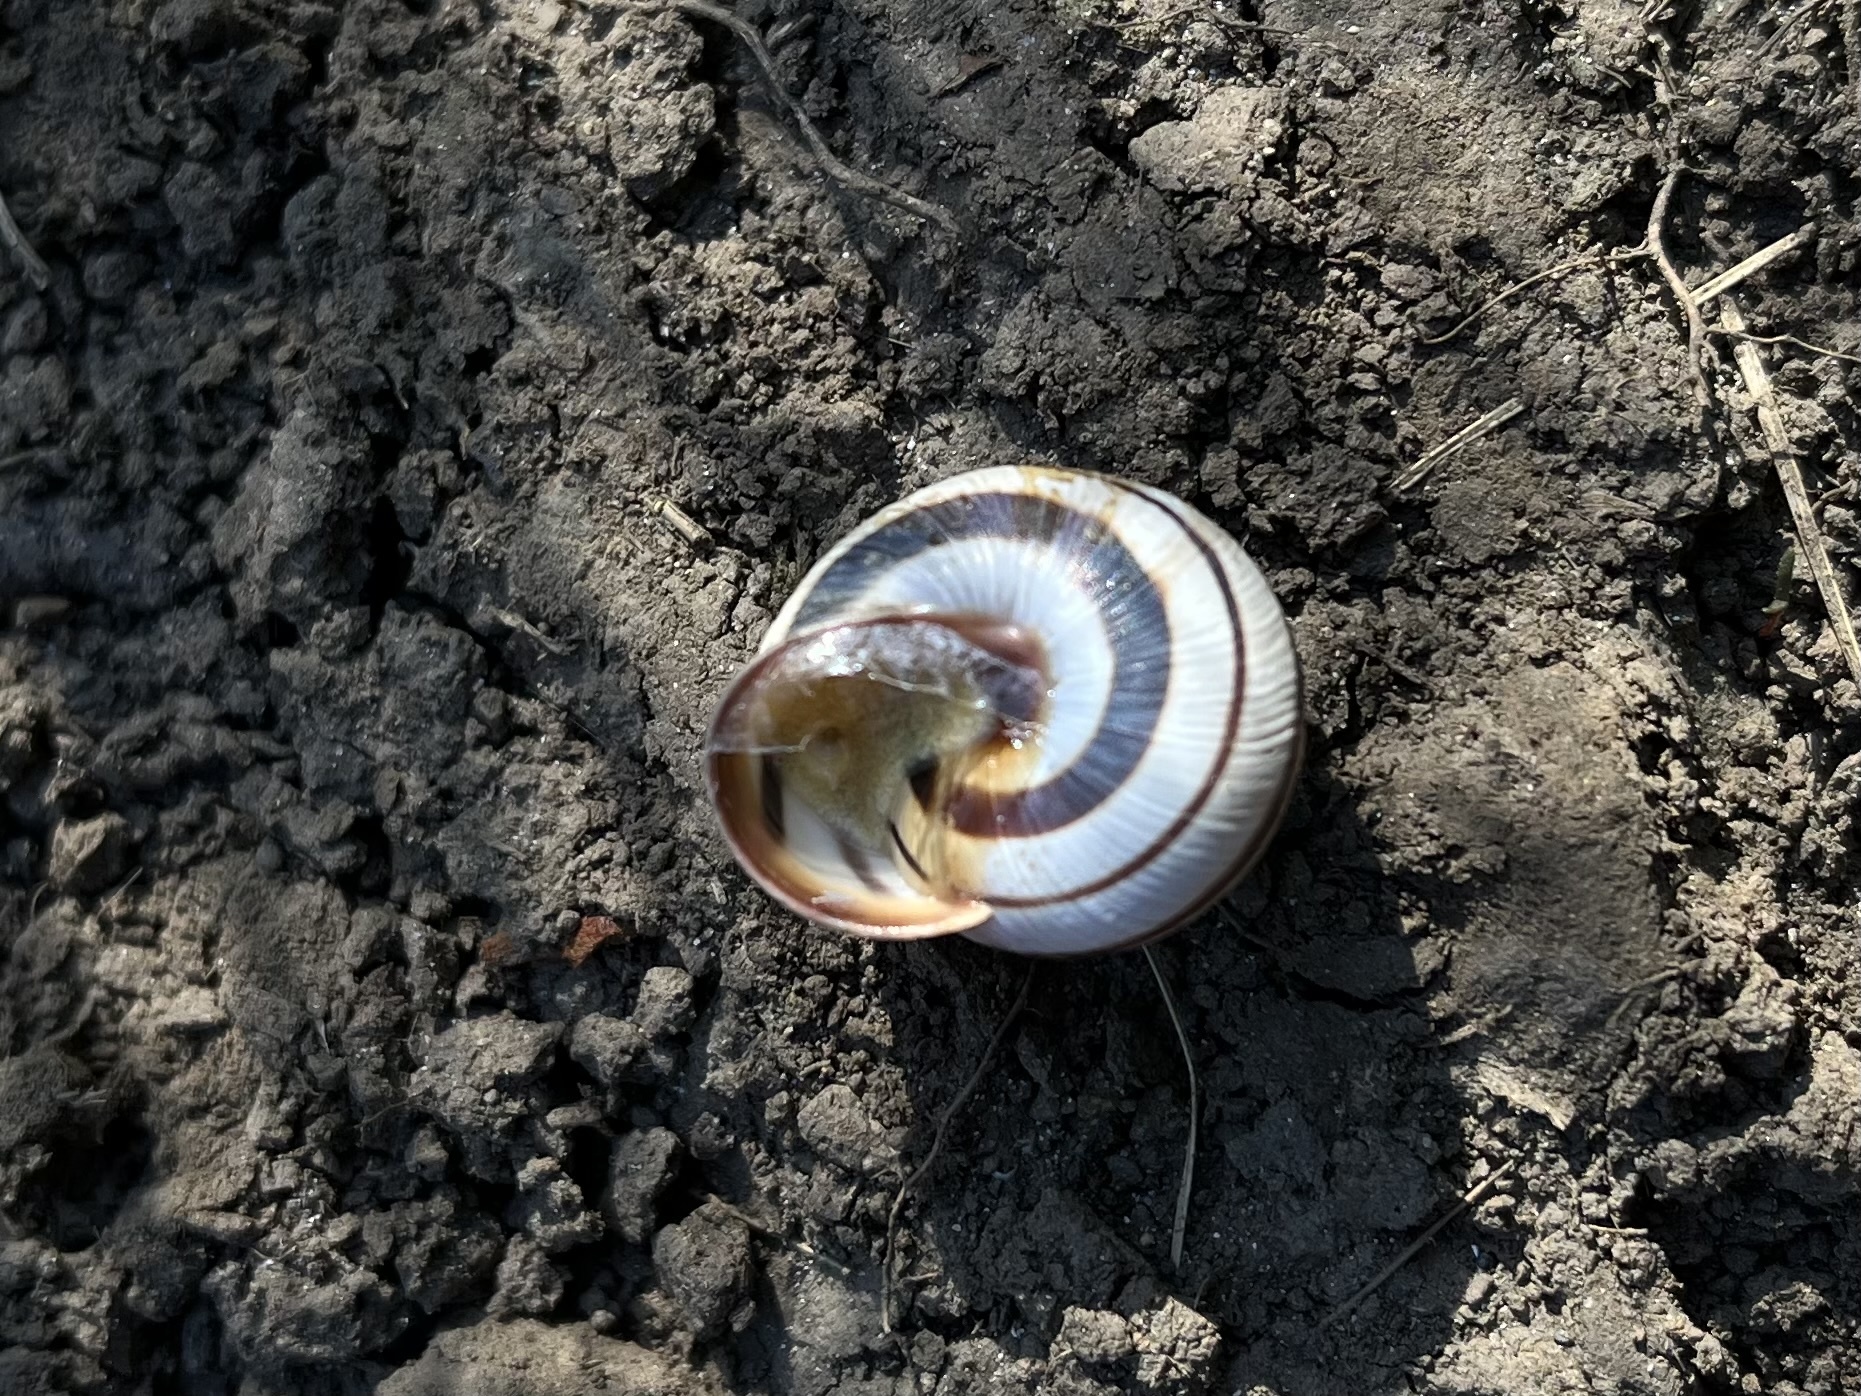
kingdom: Animalia
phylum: Mollusca
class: Gastropoda
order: Stylommatophora
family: Helicidae
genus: Caucasotachea
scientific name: Caucasotachea vindobonensis
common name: European helicid land snail
